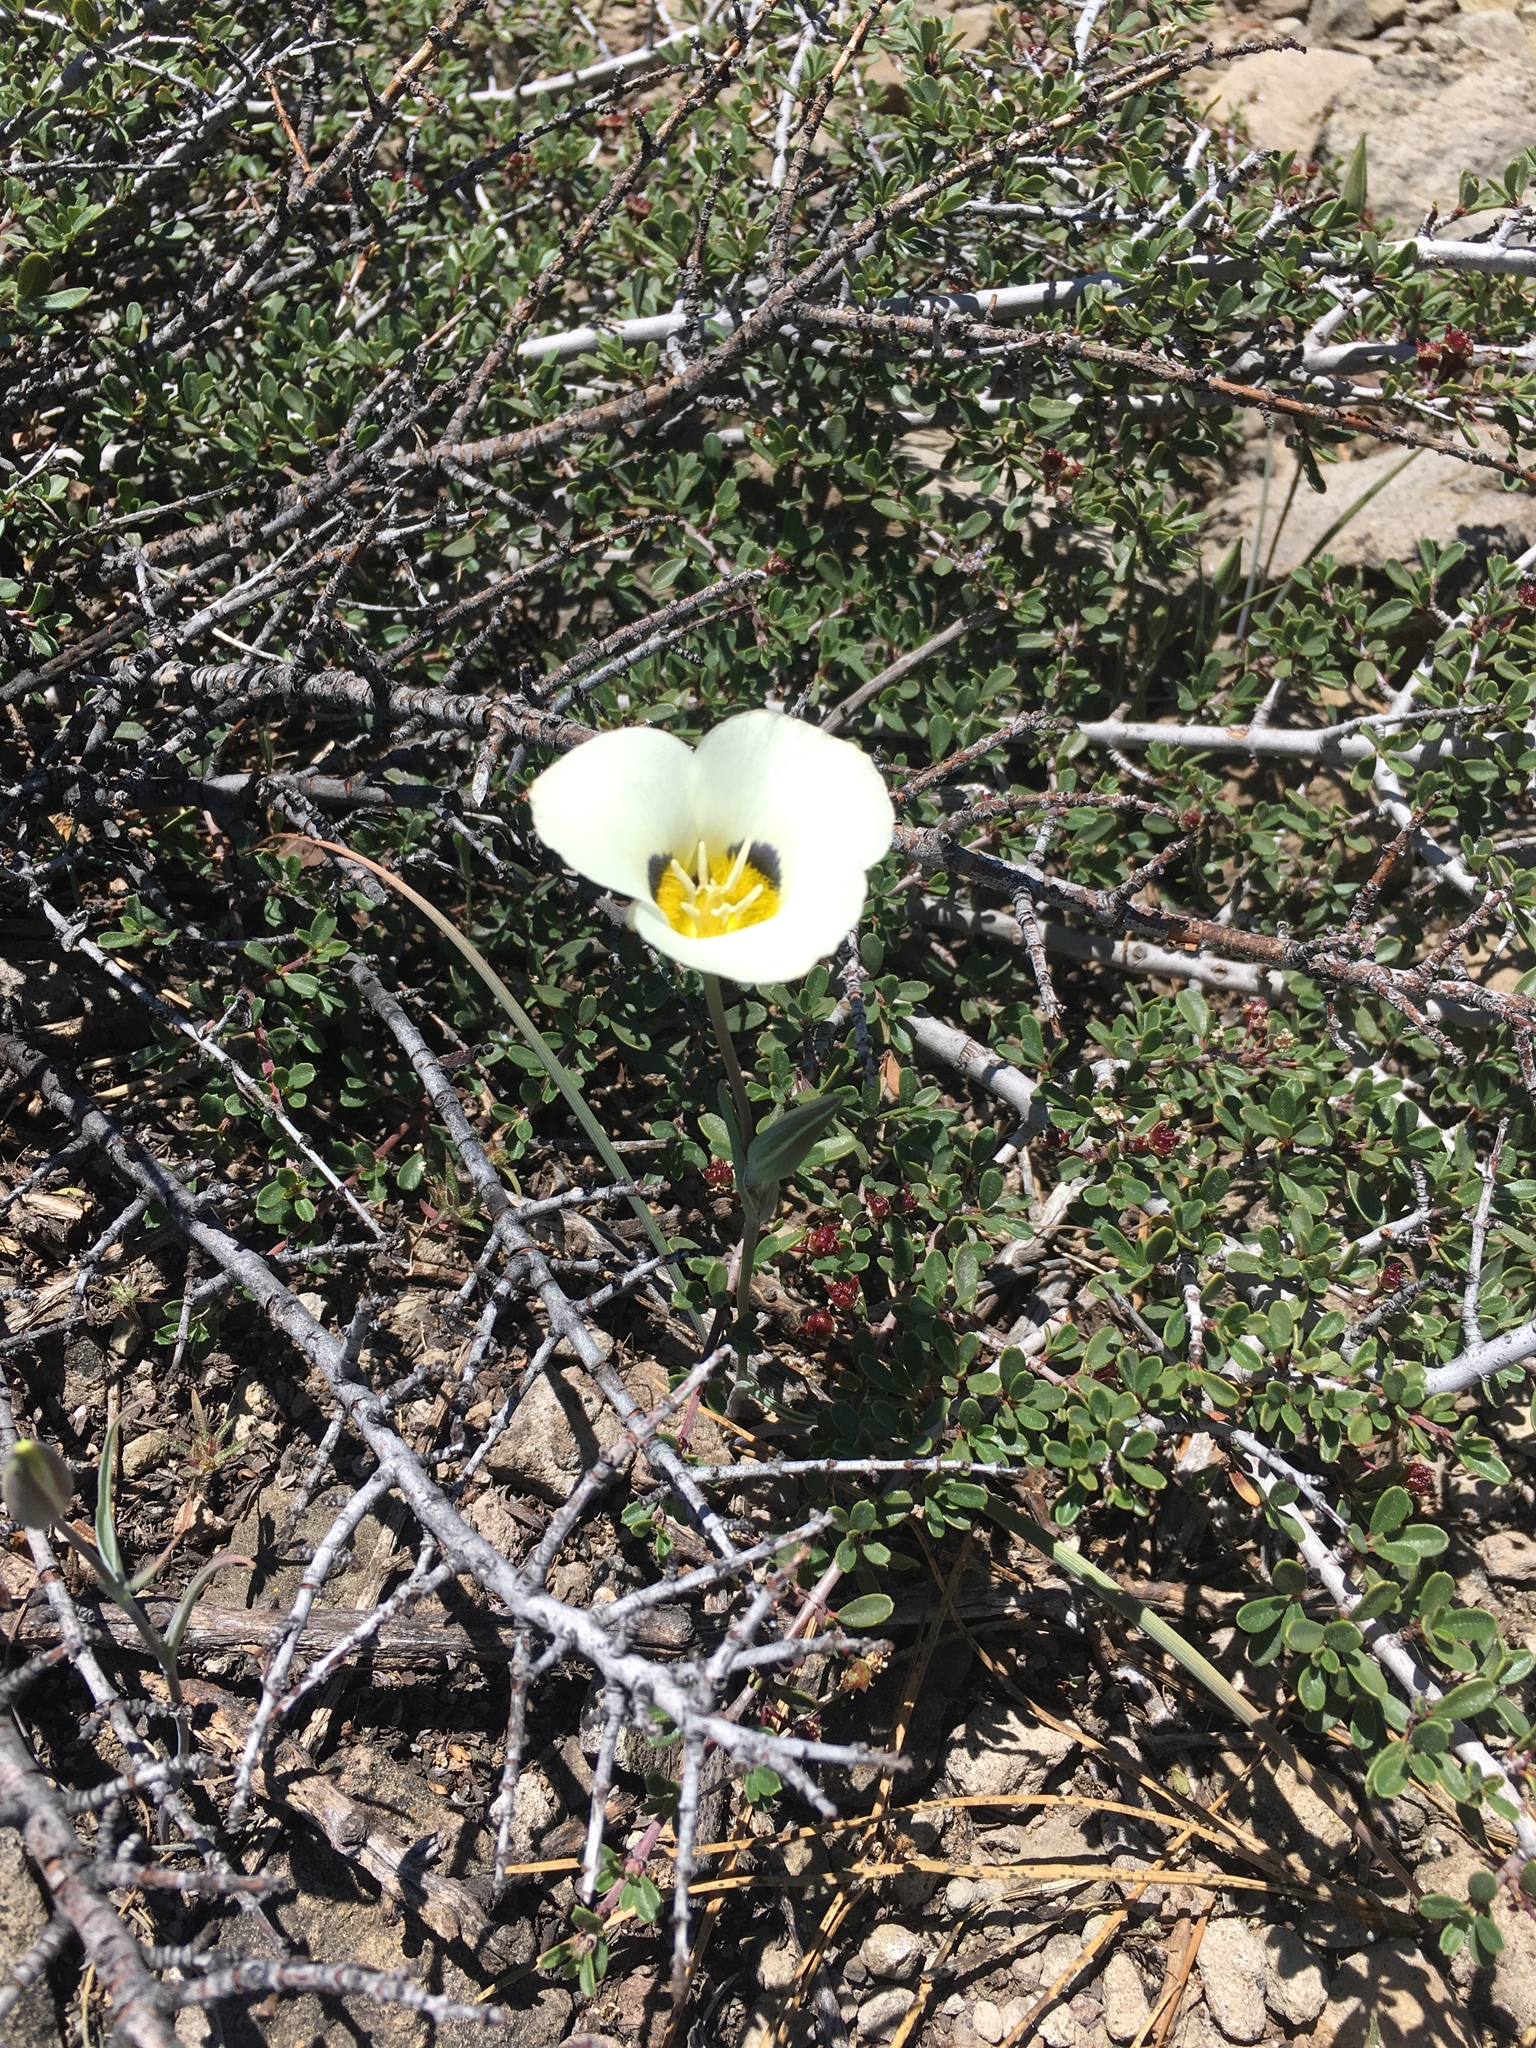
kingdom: Plantae
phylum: Tracheophyta
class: Liliopsida
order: Liliales
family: Liliaceae
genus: Calochortus
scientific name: Calochortus leichtlinii
